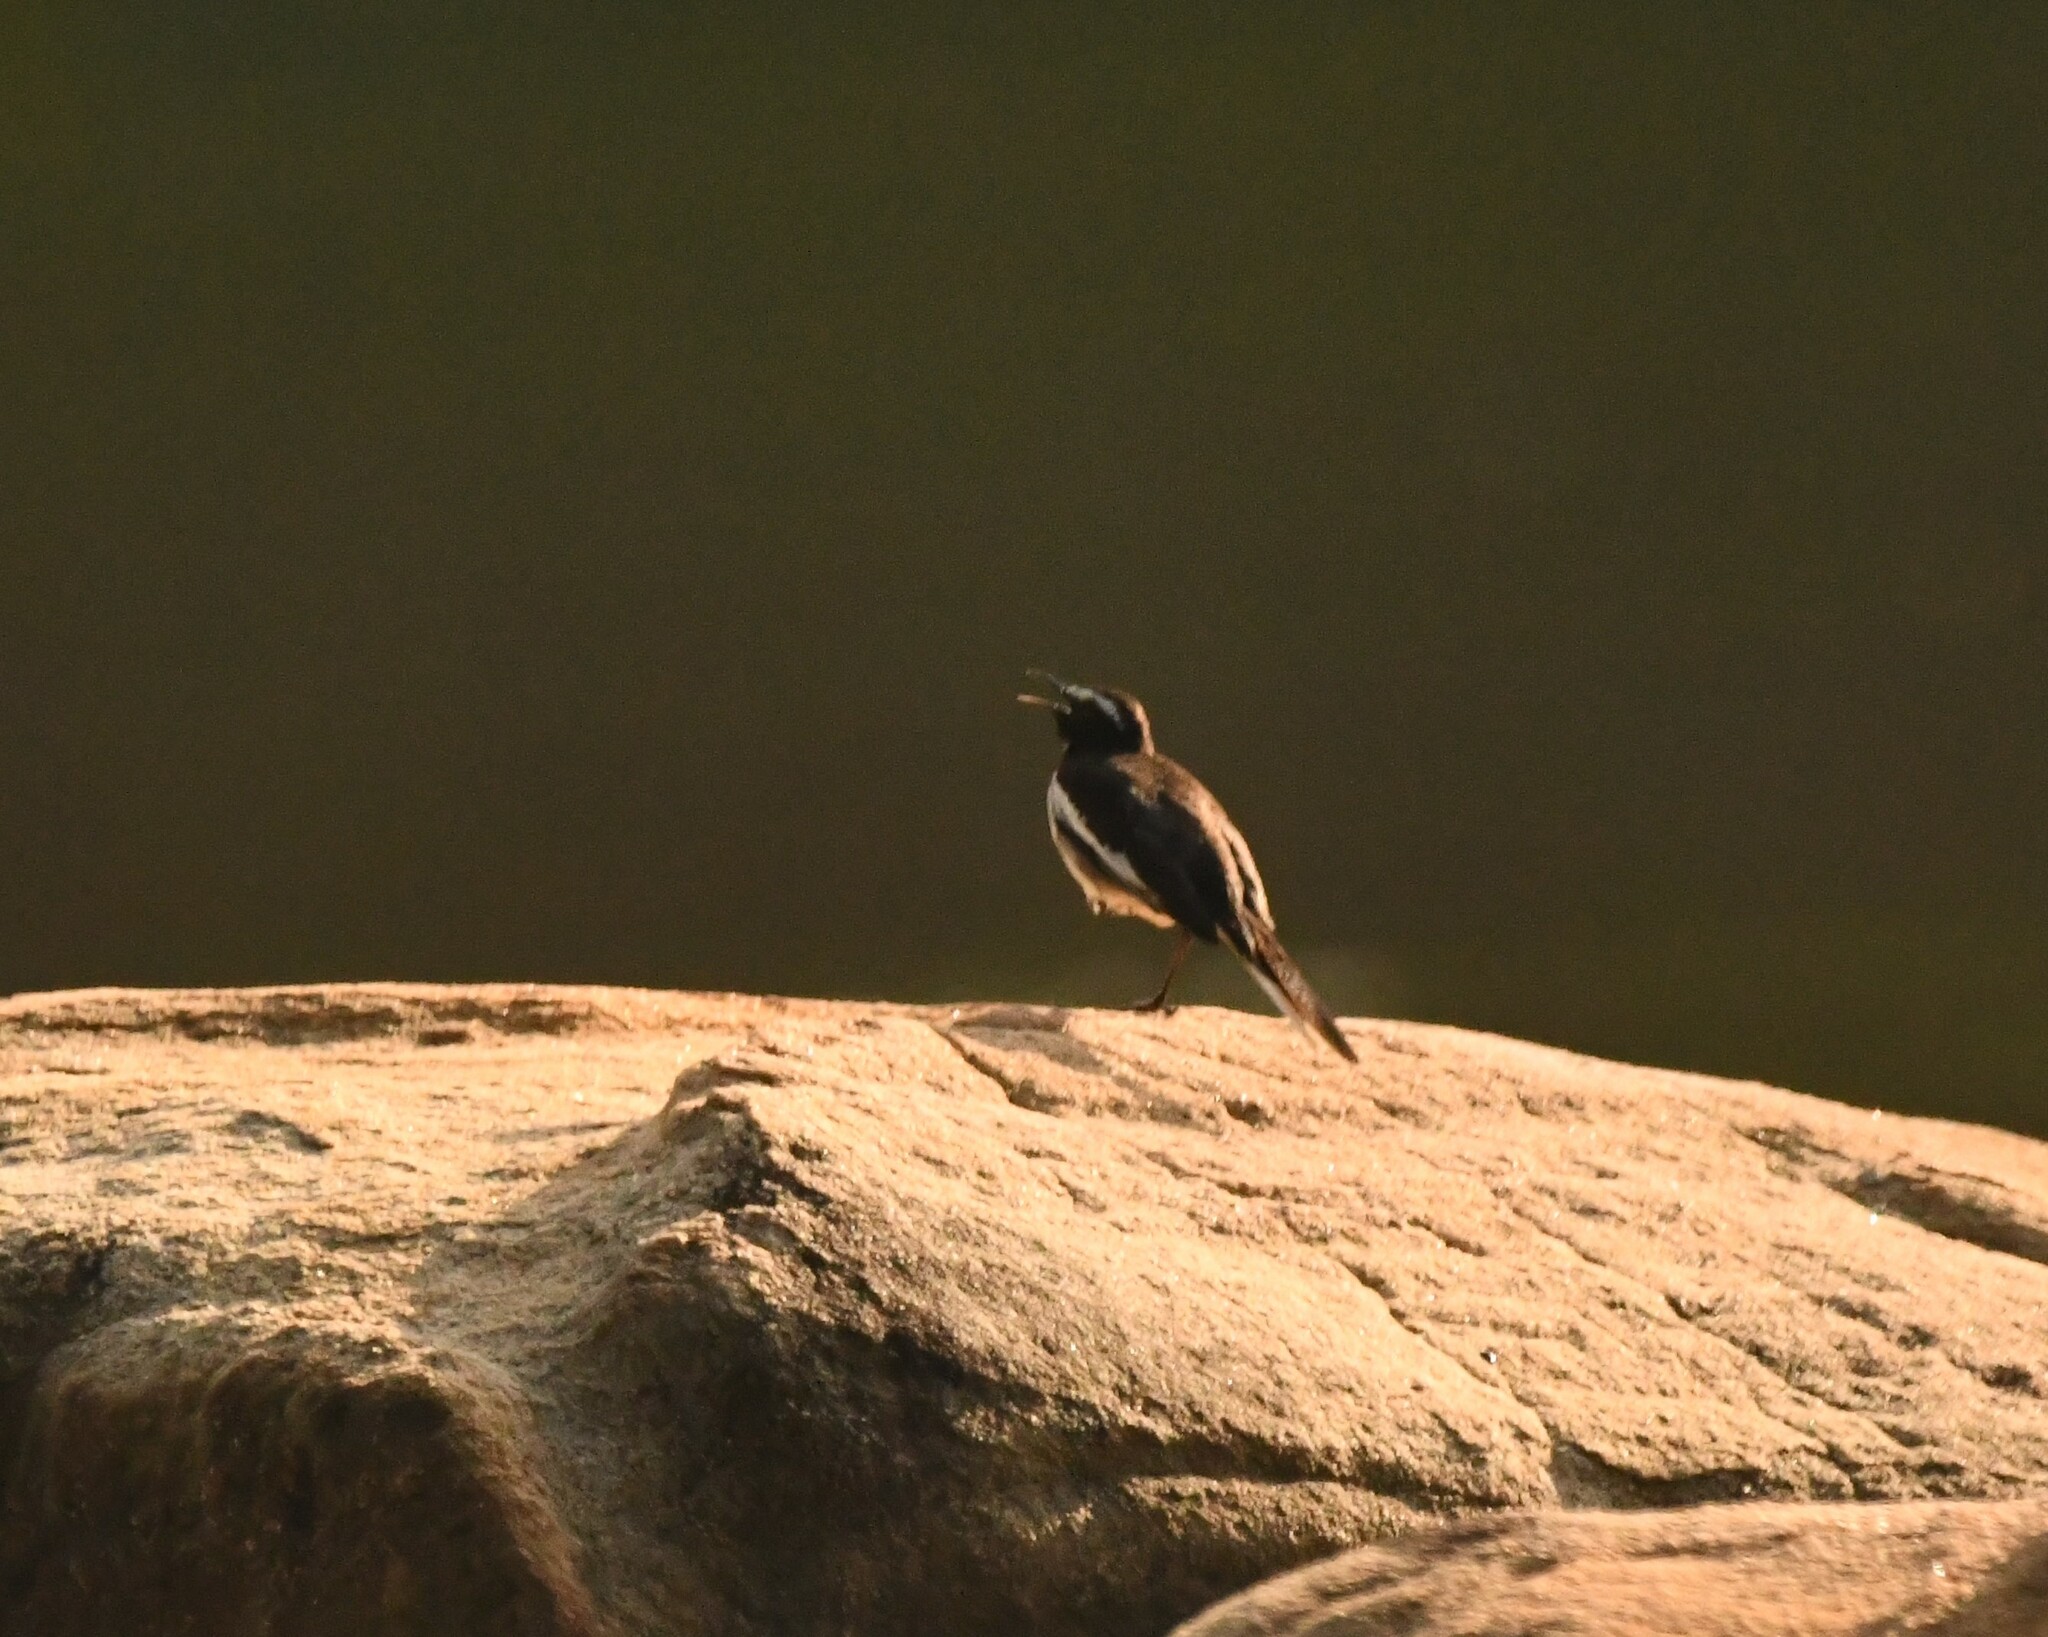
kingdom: Animalia
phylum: Chordata
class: Aves
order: Passeriformes
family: Motacillidae
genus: Motacilla
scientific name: Motacilla maderaspatensis
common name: White-browed wagtail
